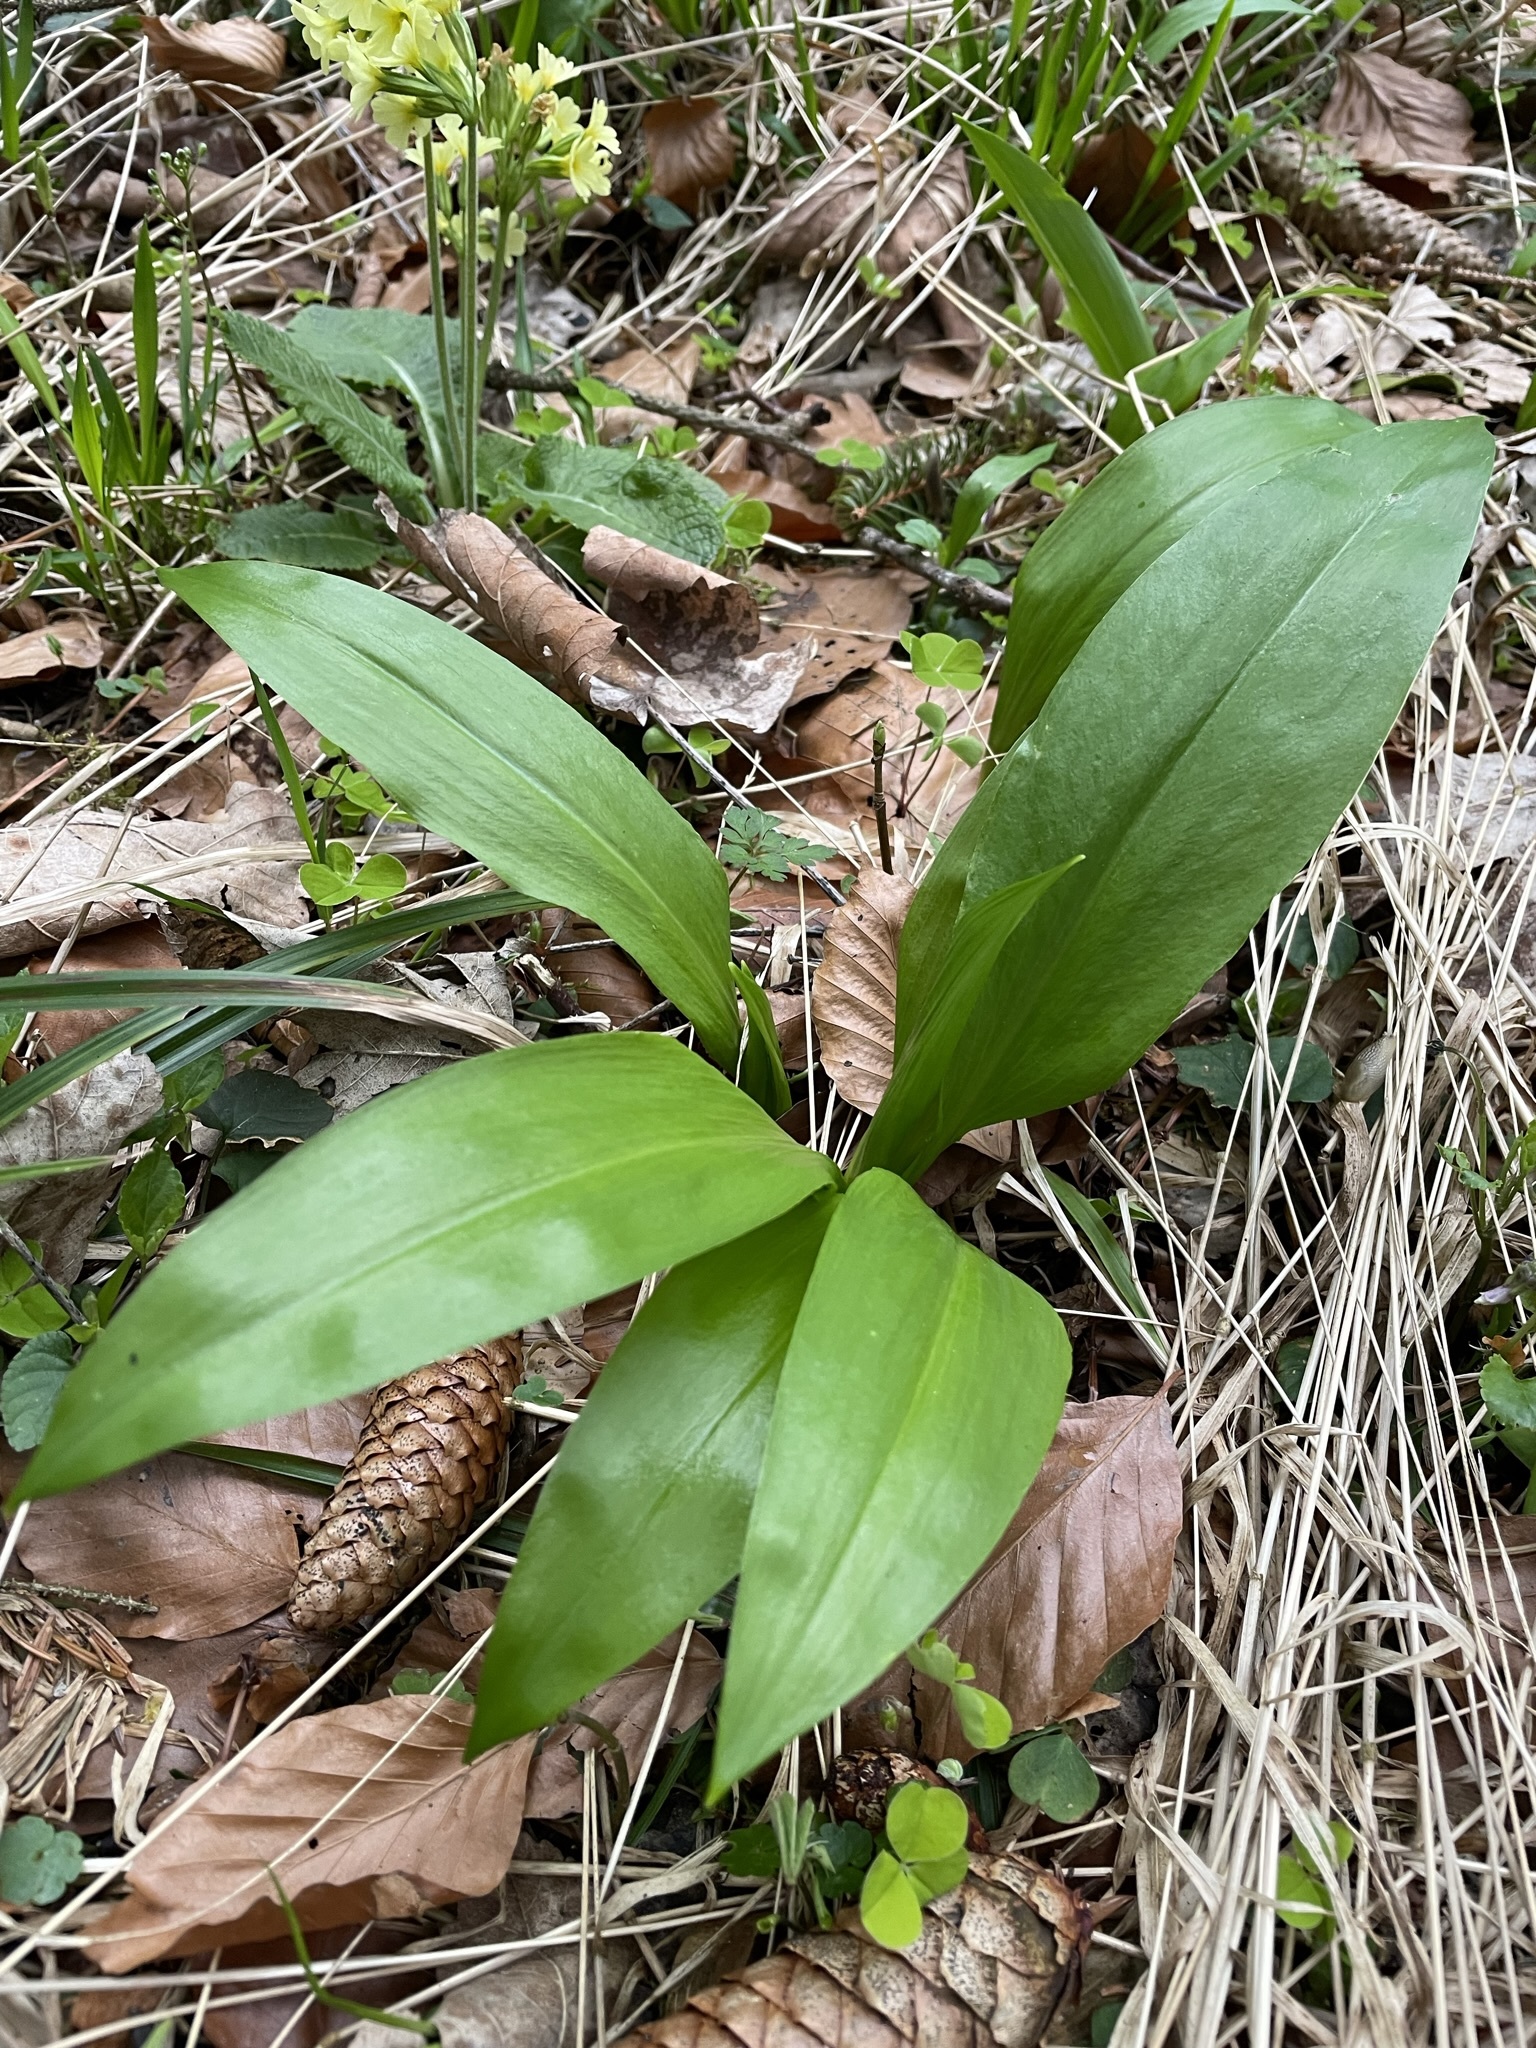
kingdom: Plantae
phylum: Tracheophyta
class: Liliopsida
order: Asparagales
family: Amaryllidaceae
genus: Allium
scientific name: Allium ursinum
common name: Ramsons
